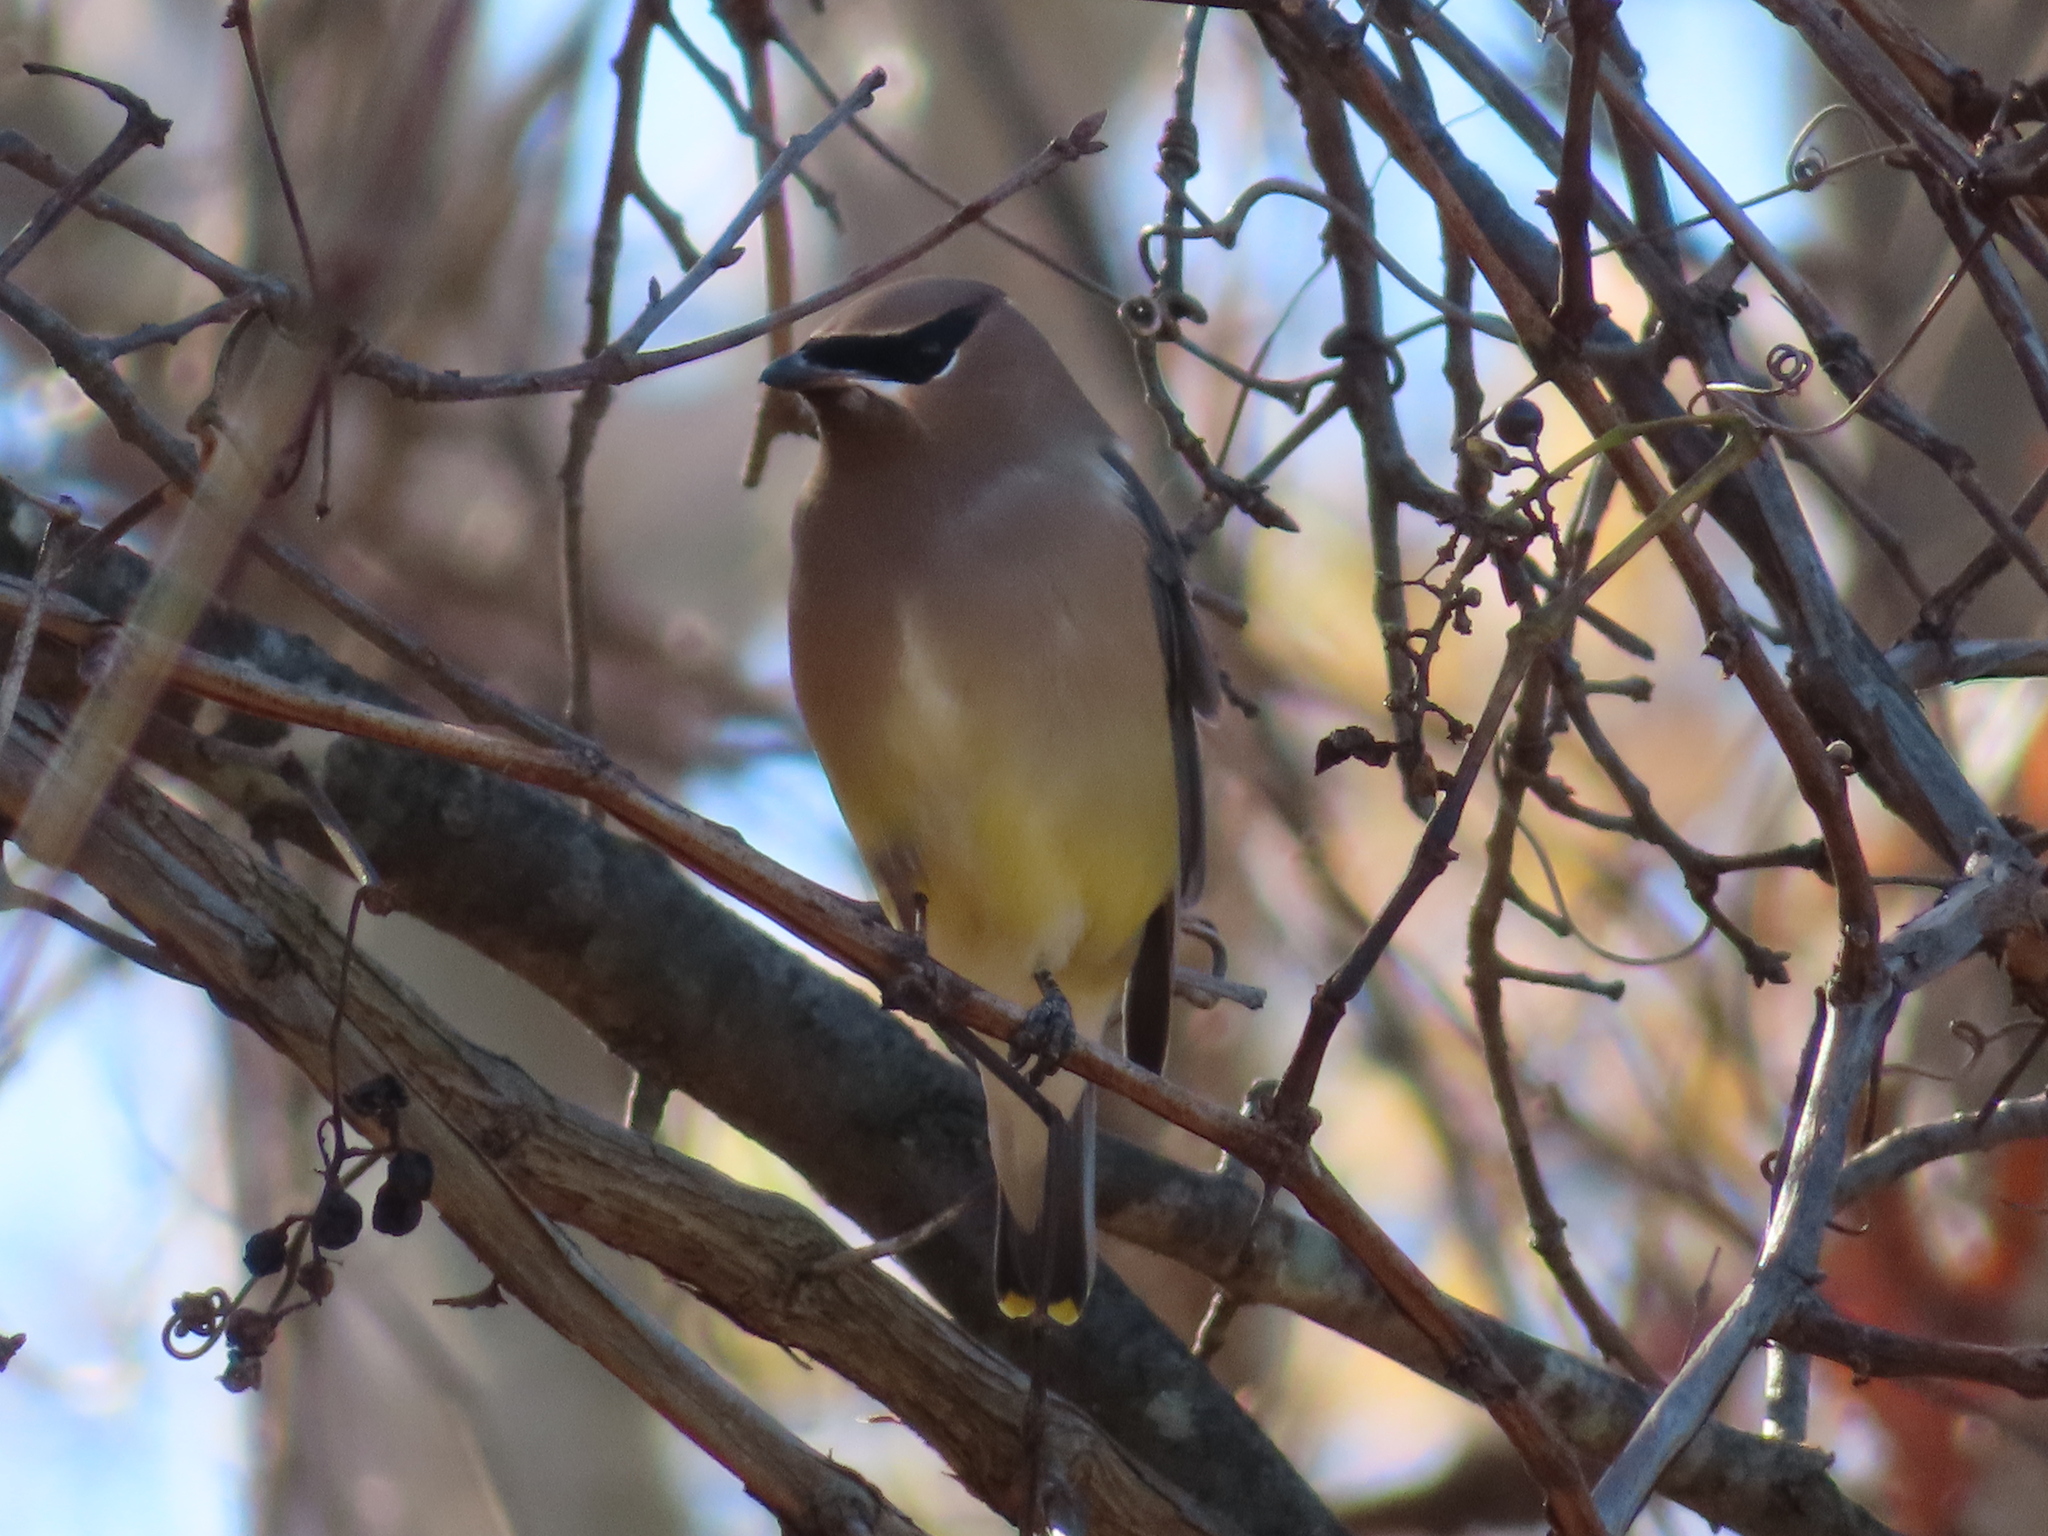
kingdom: Animalia
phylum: Chordata
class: Aves
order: Passeriformes
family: Bombycillidae
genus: Bombycilla
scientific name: Bombycilla cedrorum
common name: Cedar waxwing
